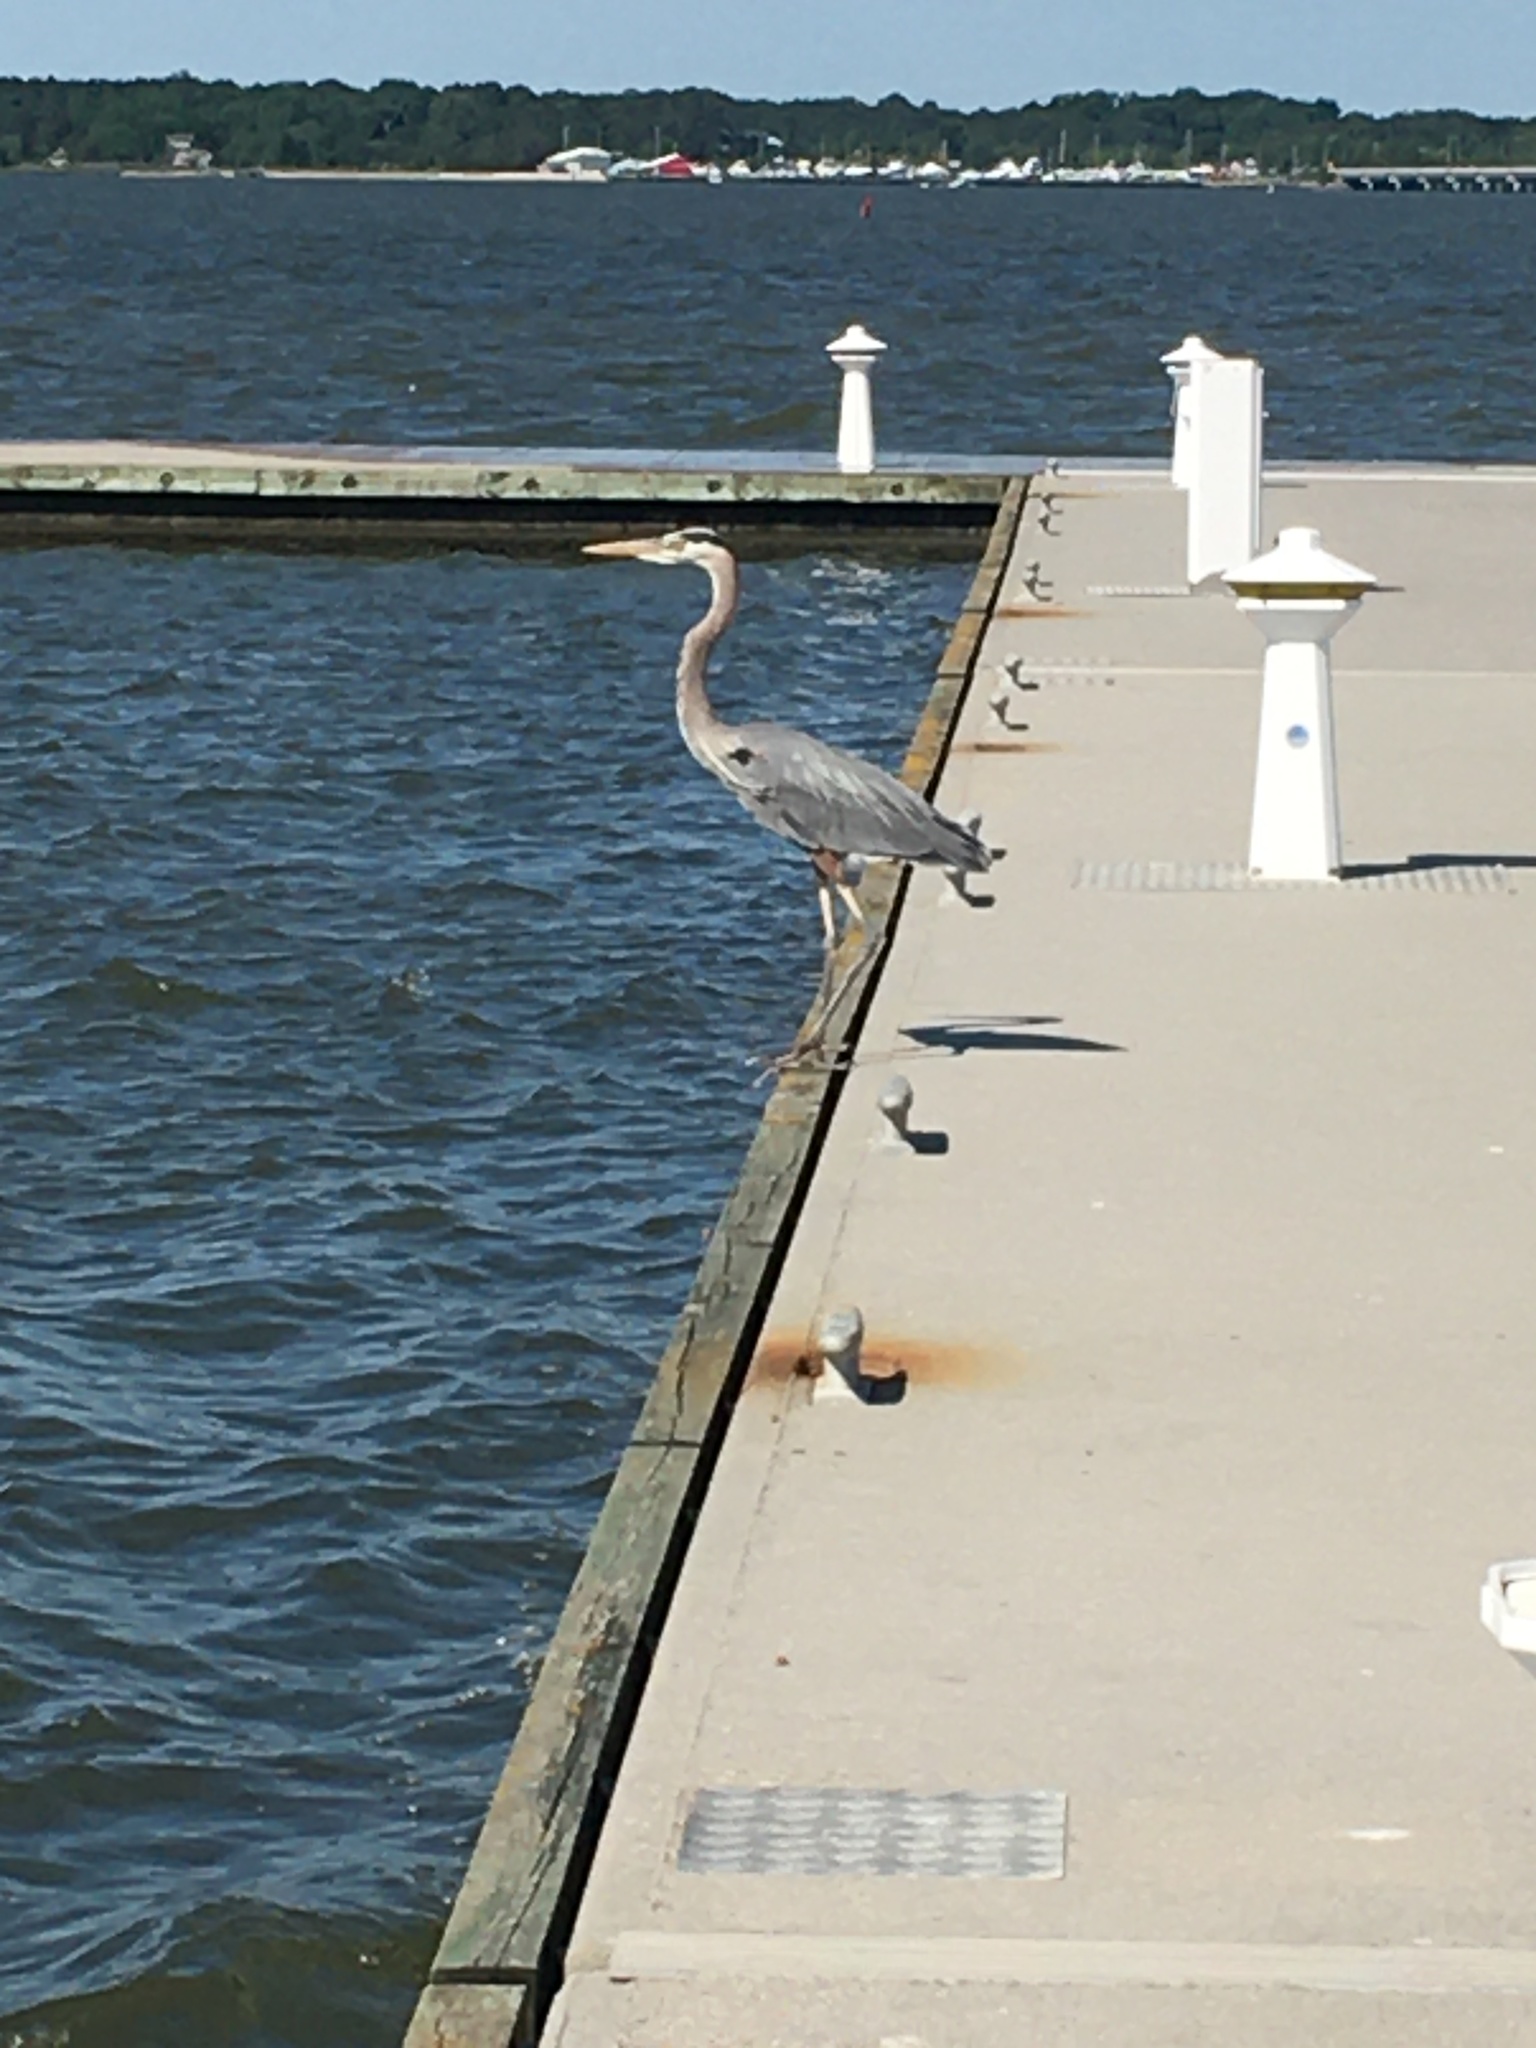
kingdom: Animalia
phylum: Chordata
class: Aves
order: Pelecaniformes
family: Ardeidae
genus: Ardea
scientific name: Ardea herodias
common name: Great blue heron
